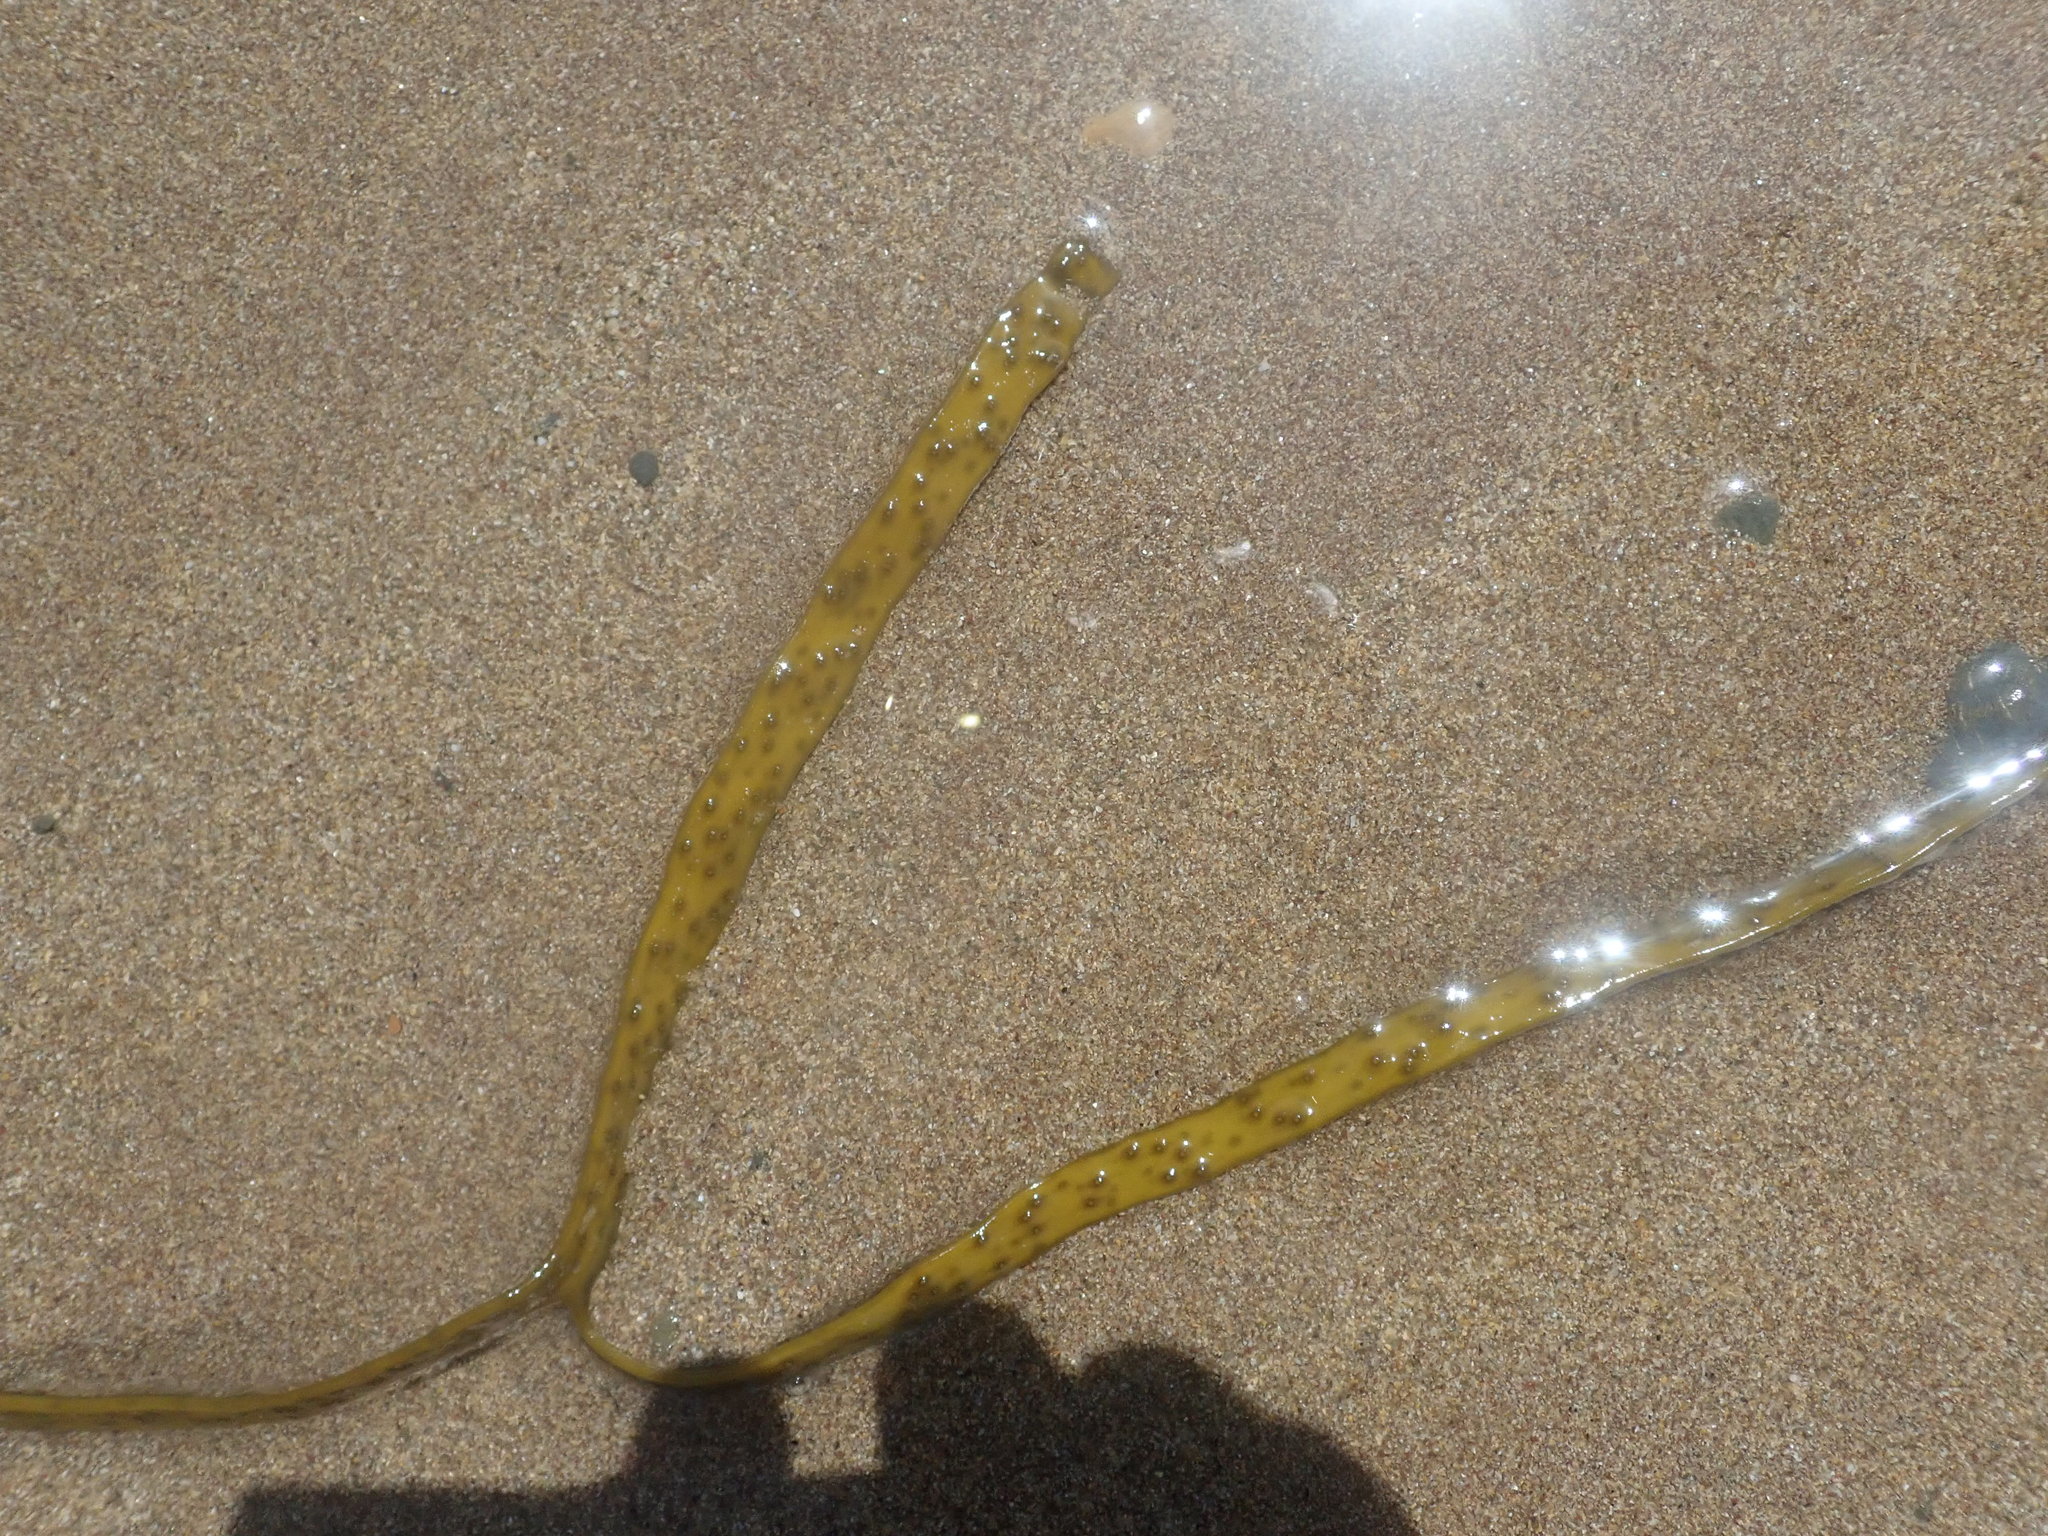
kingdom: Chromista
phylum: Ochrophyta
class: Phaeophyceae
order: Fucales
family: Himanthaliaceae
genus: Himanthalia
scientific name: Himanthalia elongata
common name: Sea-thong
